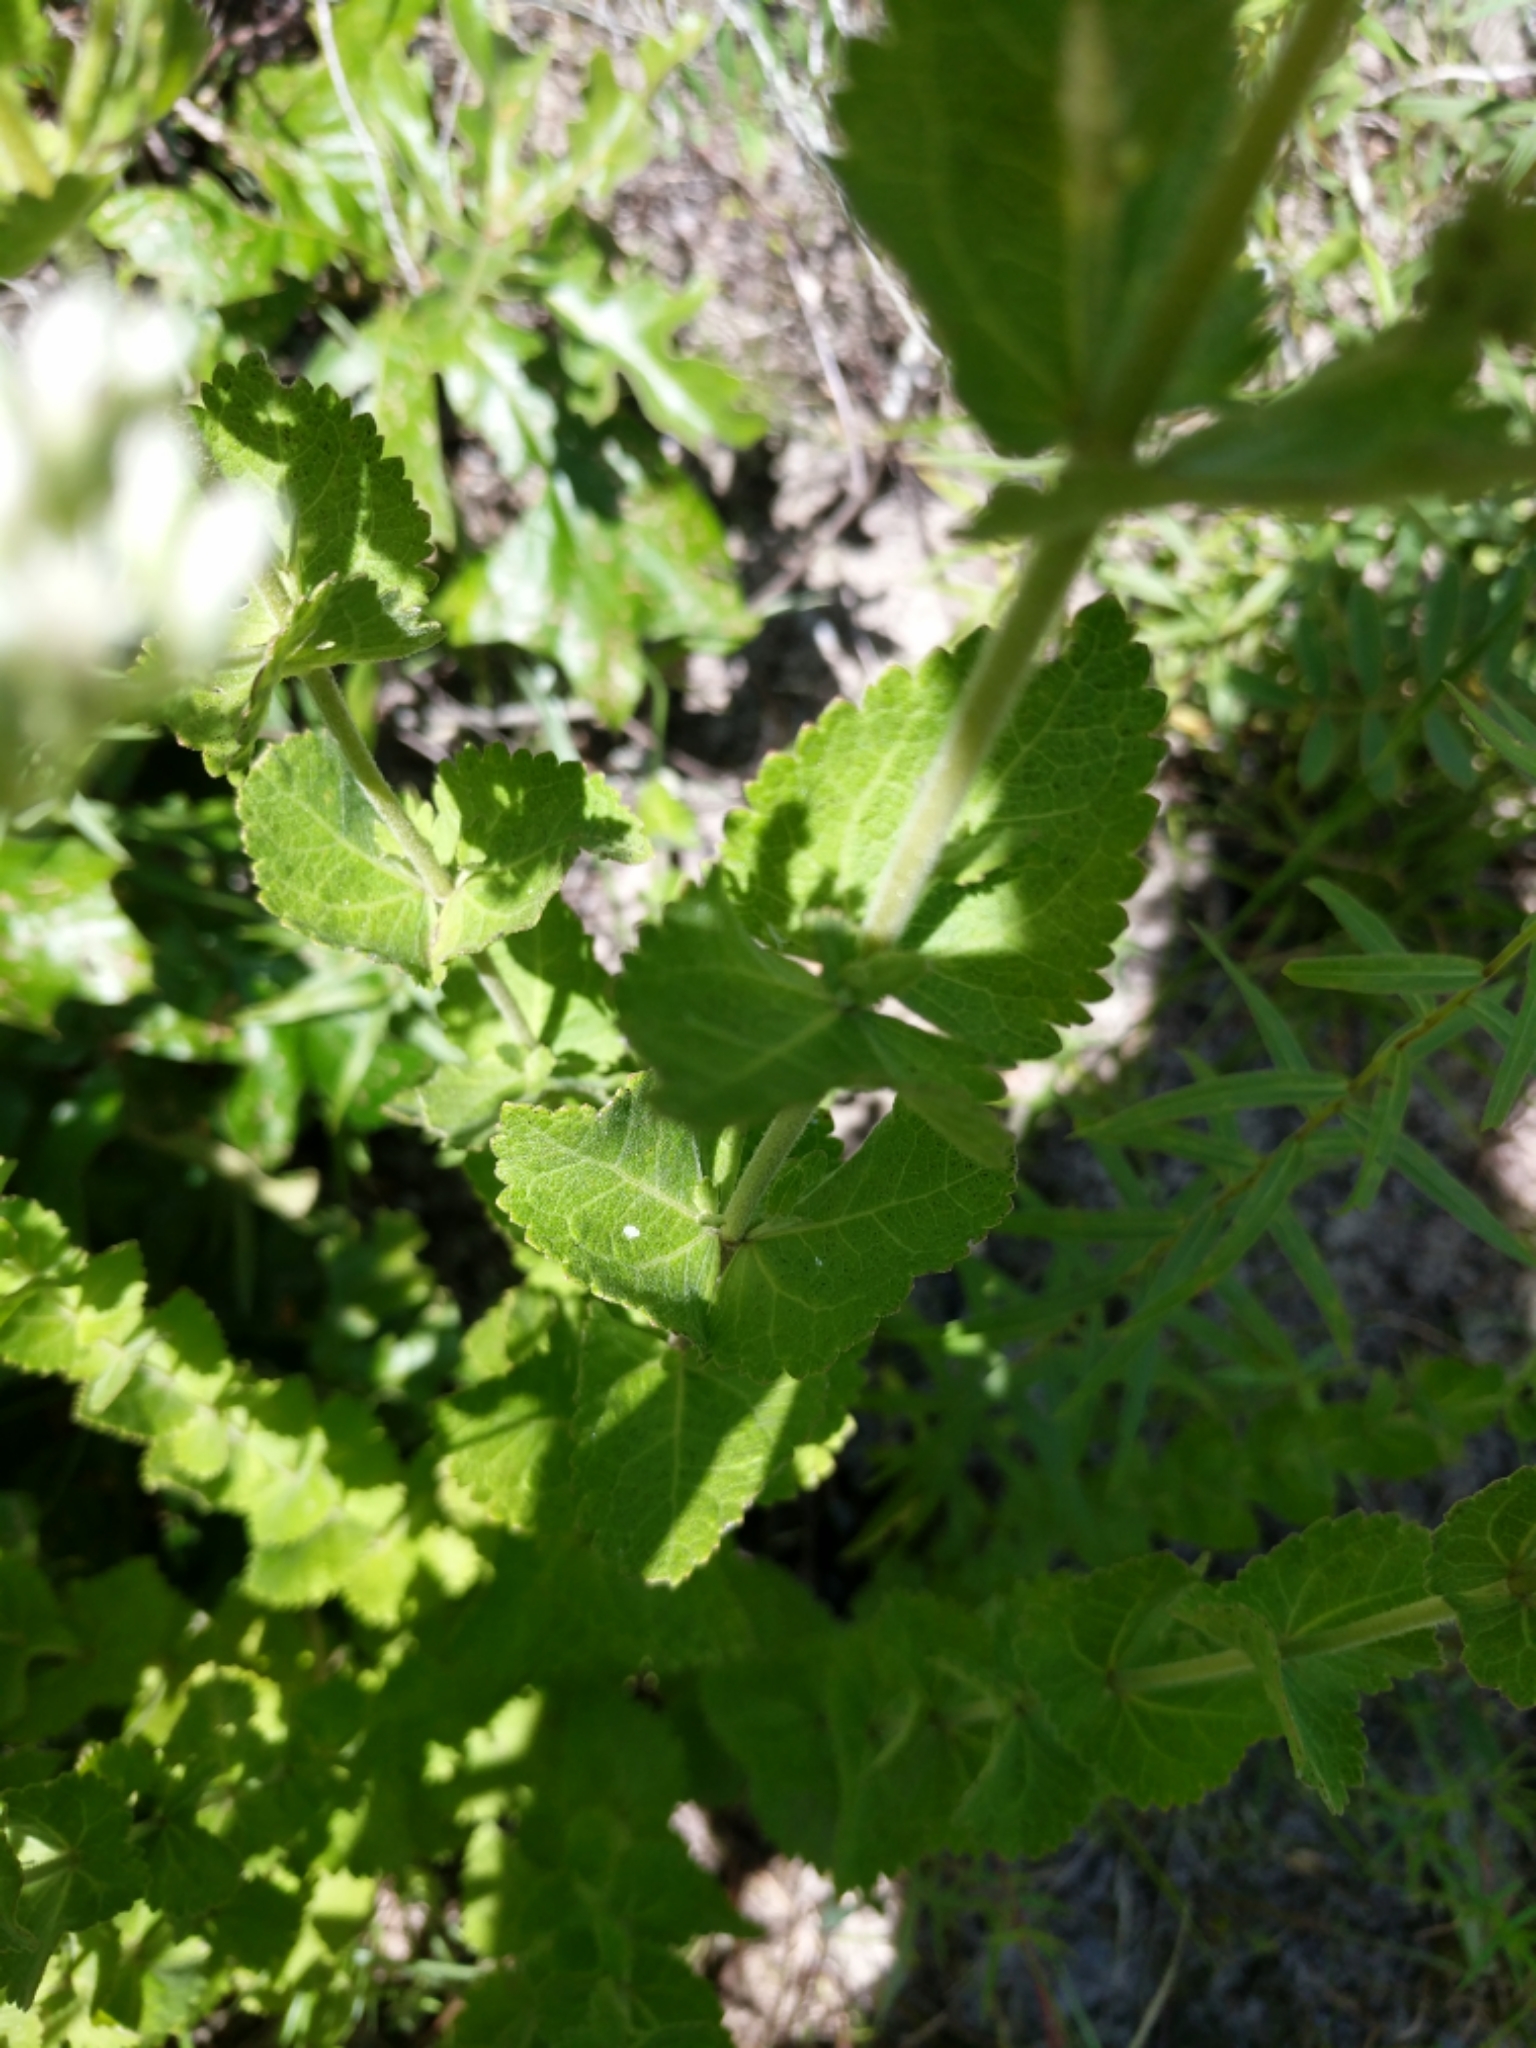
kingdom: Plantae
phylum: Tracheophyta
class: Magnoliopsida
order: Asterales
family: Asteraceae
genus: Eupatorium
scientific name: Eupatorium rotundifolium
